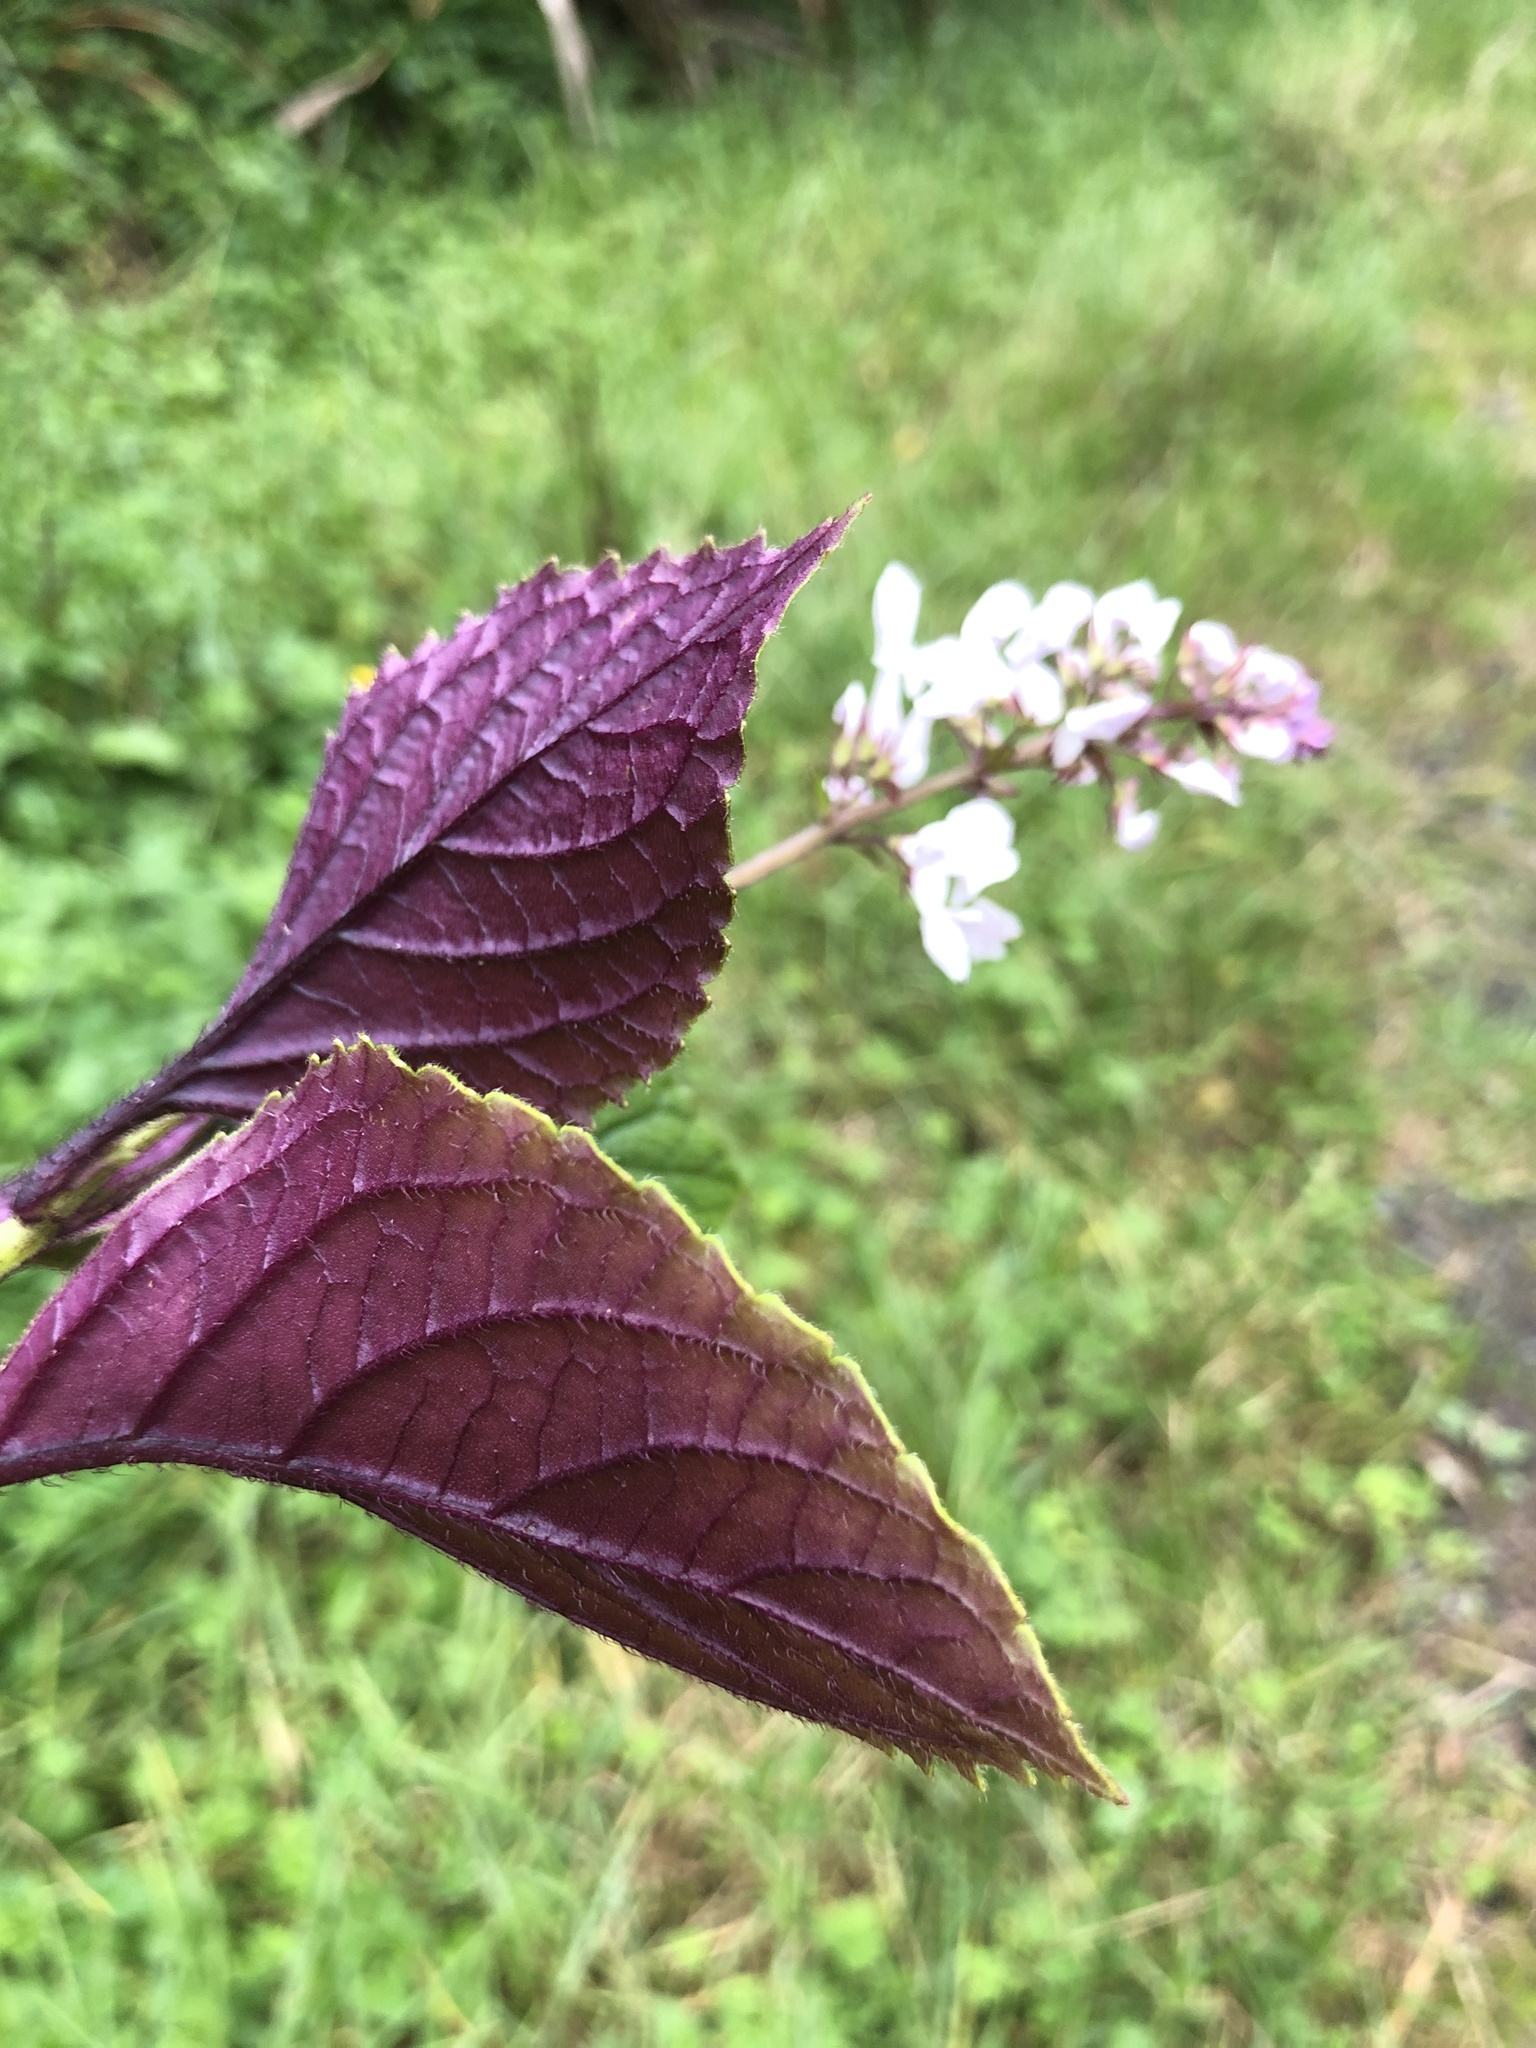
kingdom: Plantae
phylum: Tracheophyta
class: Magnoliopsida
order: Lamiales
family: Lamiaceae
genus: Plectranthus
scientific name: Plectranthus ciliatus
